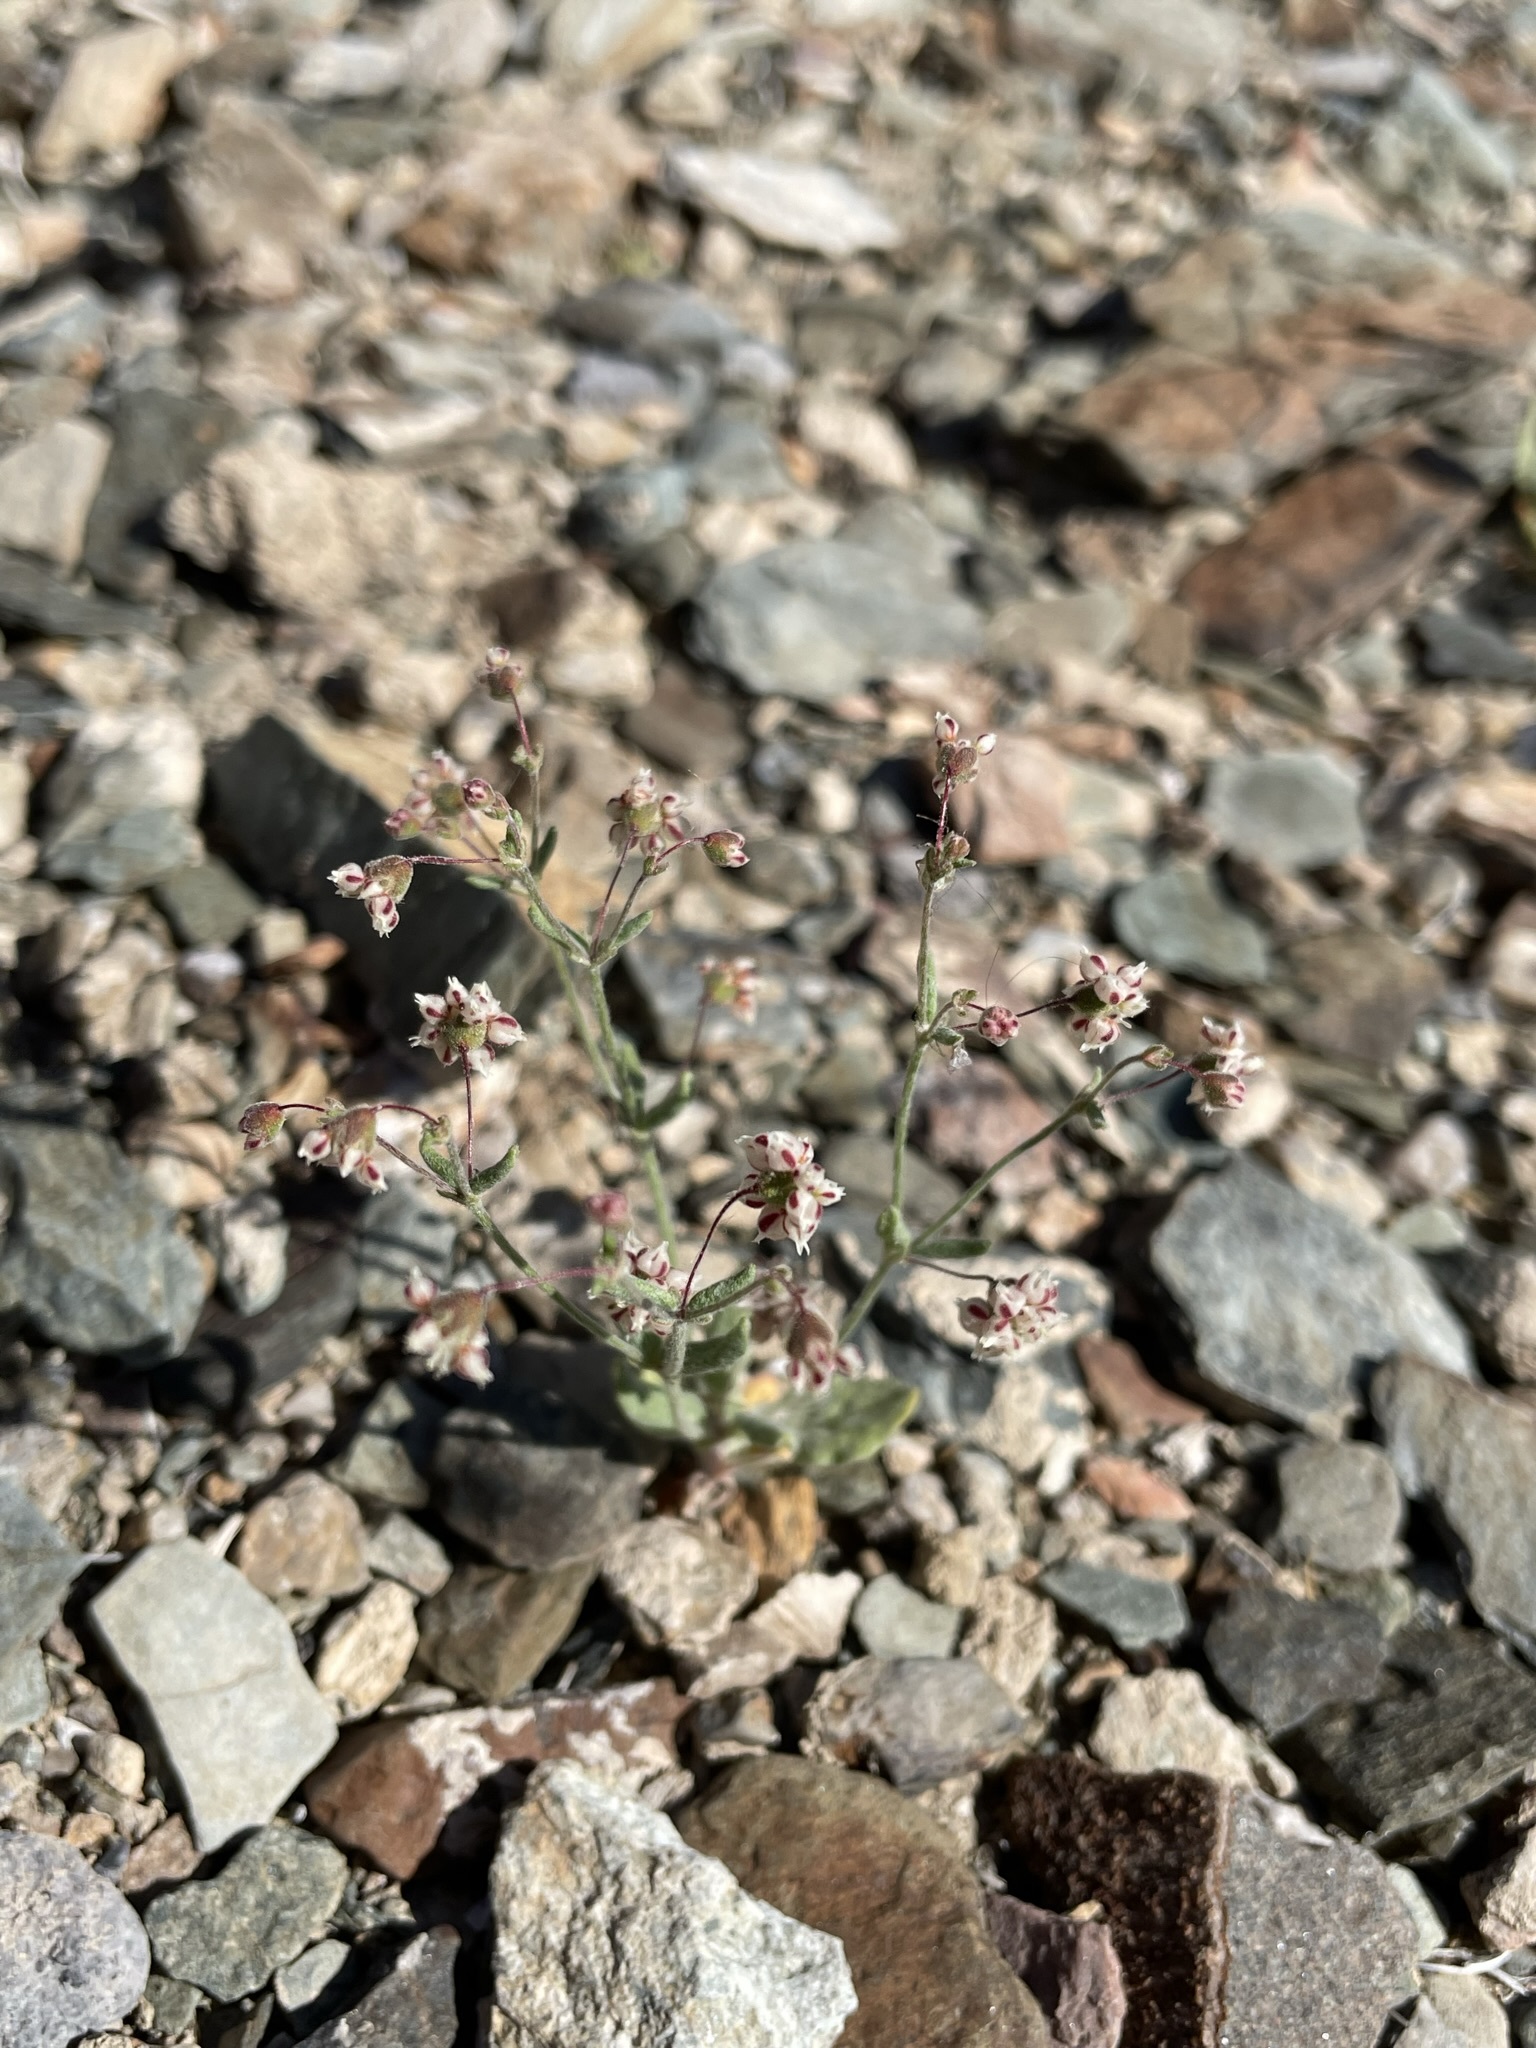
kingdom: Plantae
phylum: Tracheophyta
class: Magnoliopsida
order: Caryophyllales
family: Polygonaceae
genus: Eriogonum
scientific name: Eriogonum maculatum
